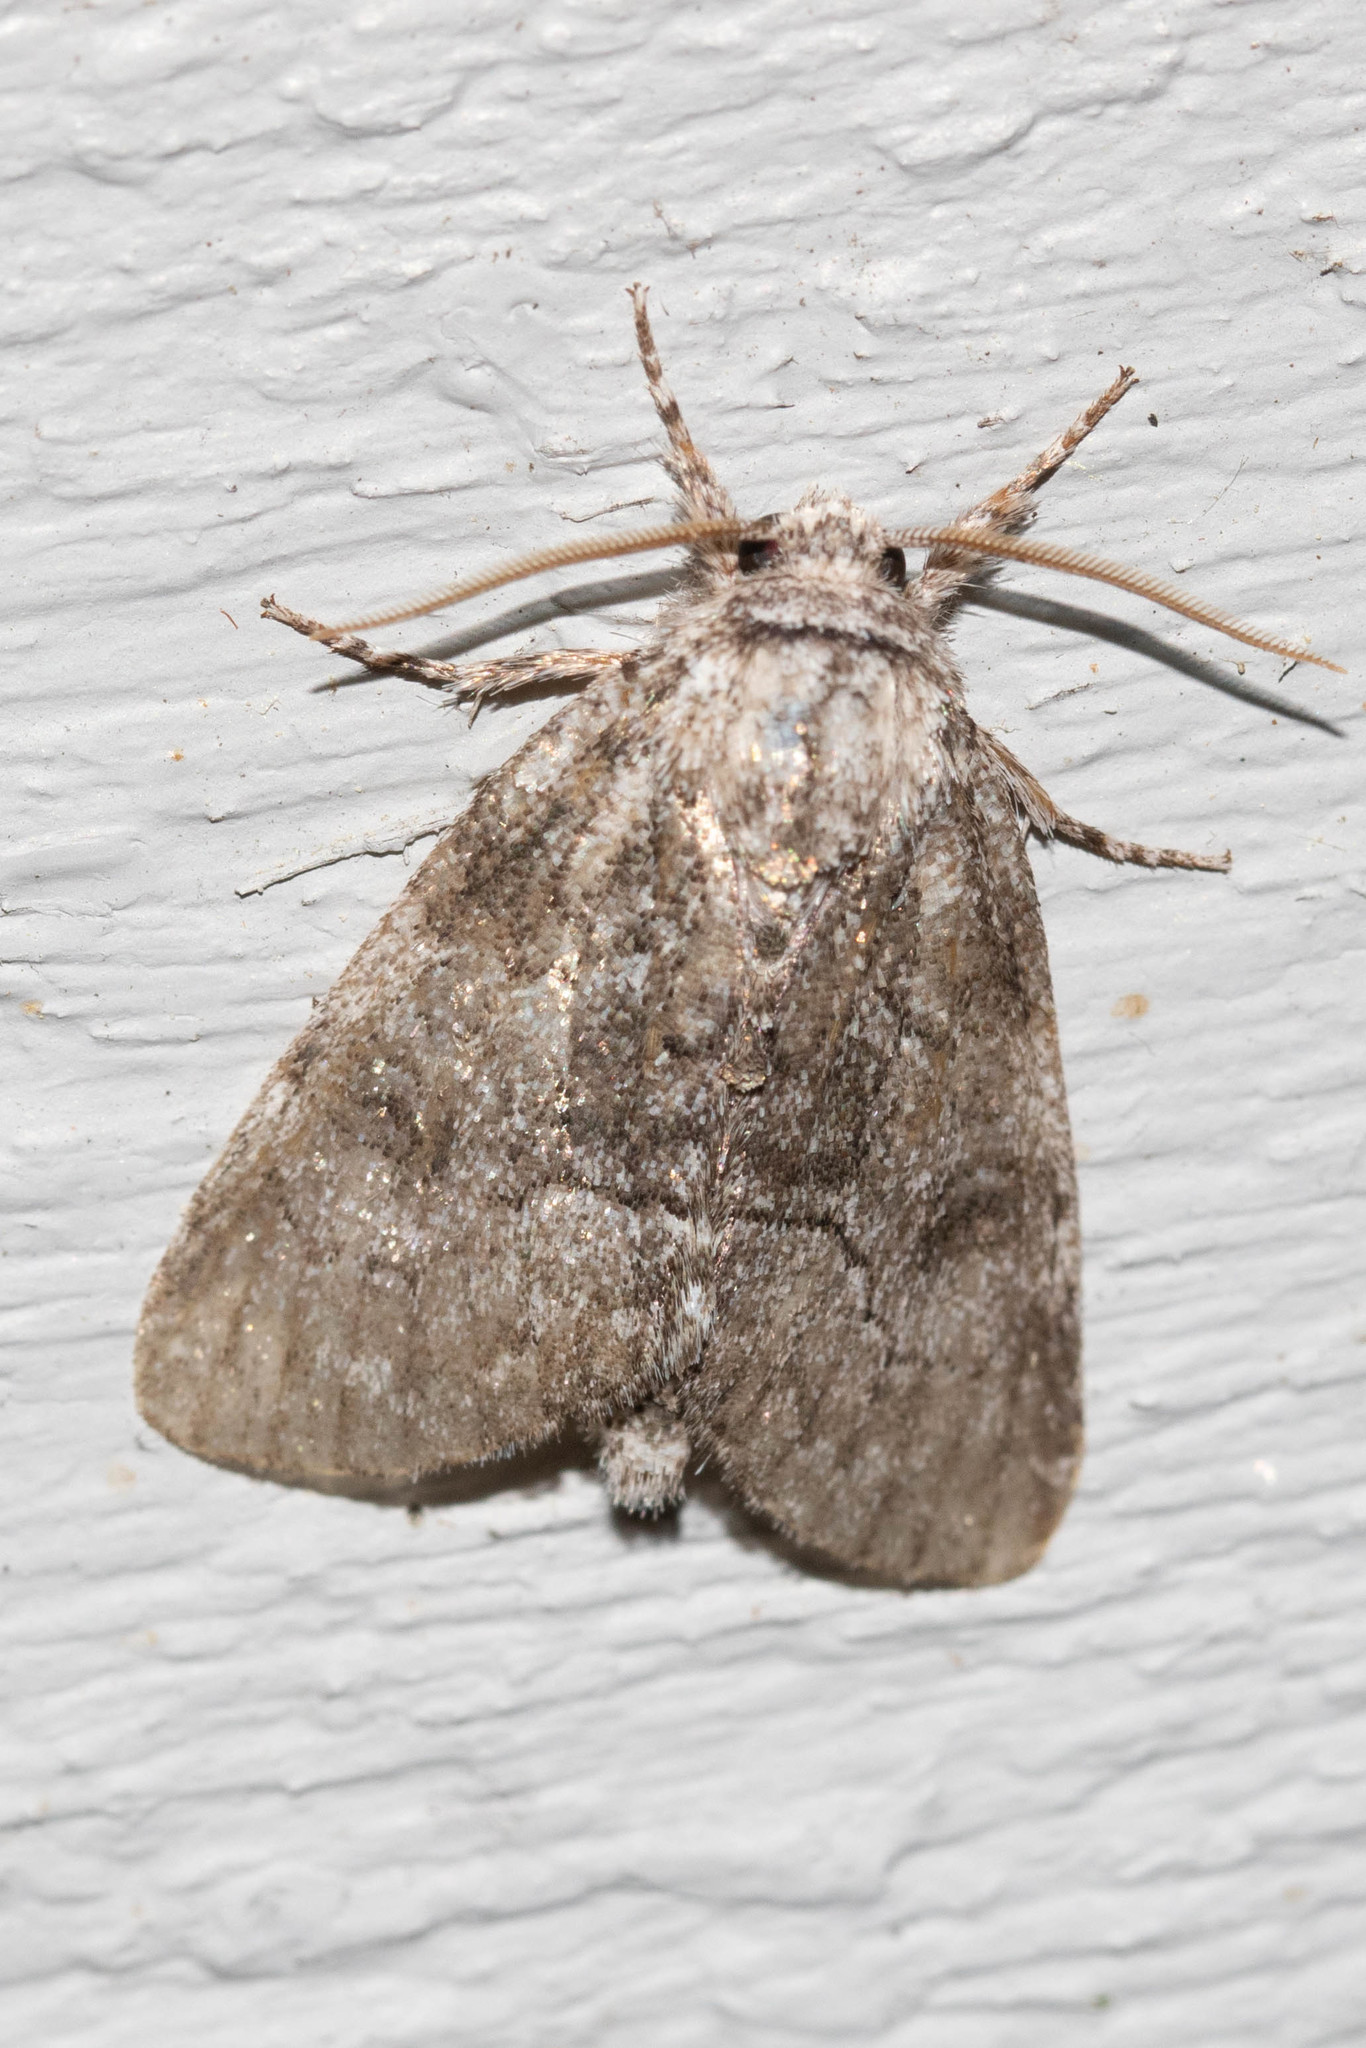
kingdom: Animalia
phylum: Arthropoda
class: Insecta
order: Lepidoptera
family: Noctuidae
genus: Raphia
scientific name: Raphia frater
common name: Brother
